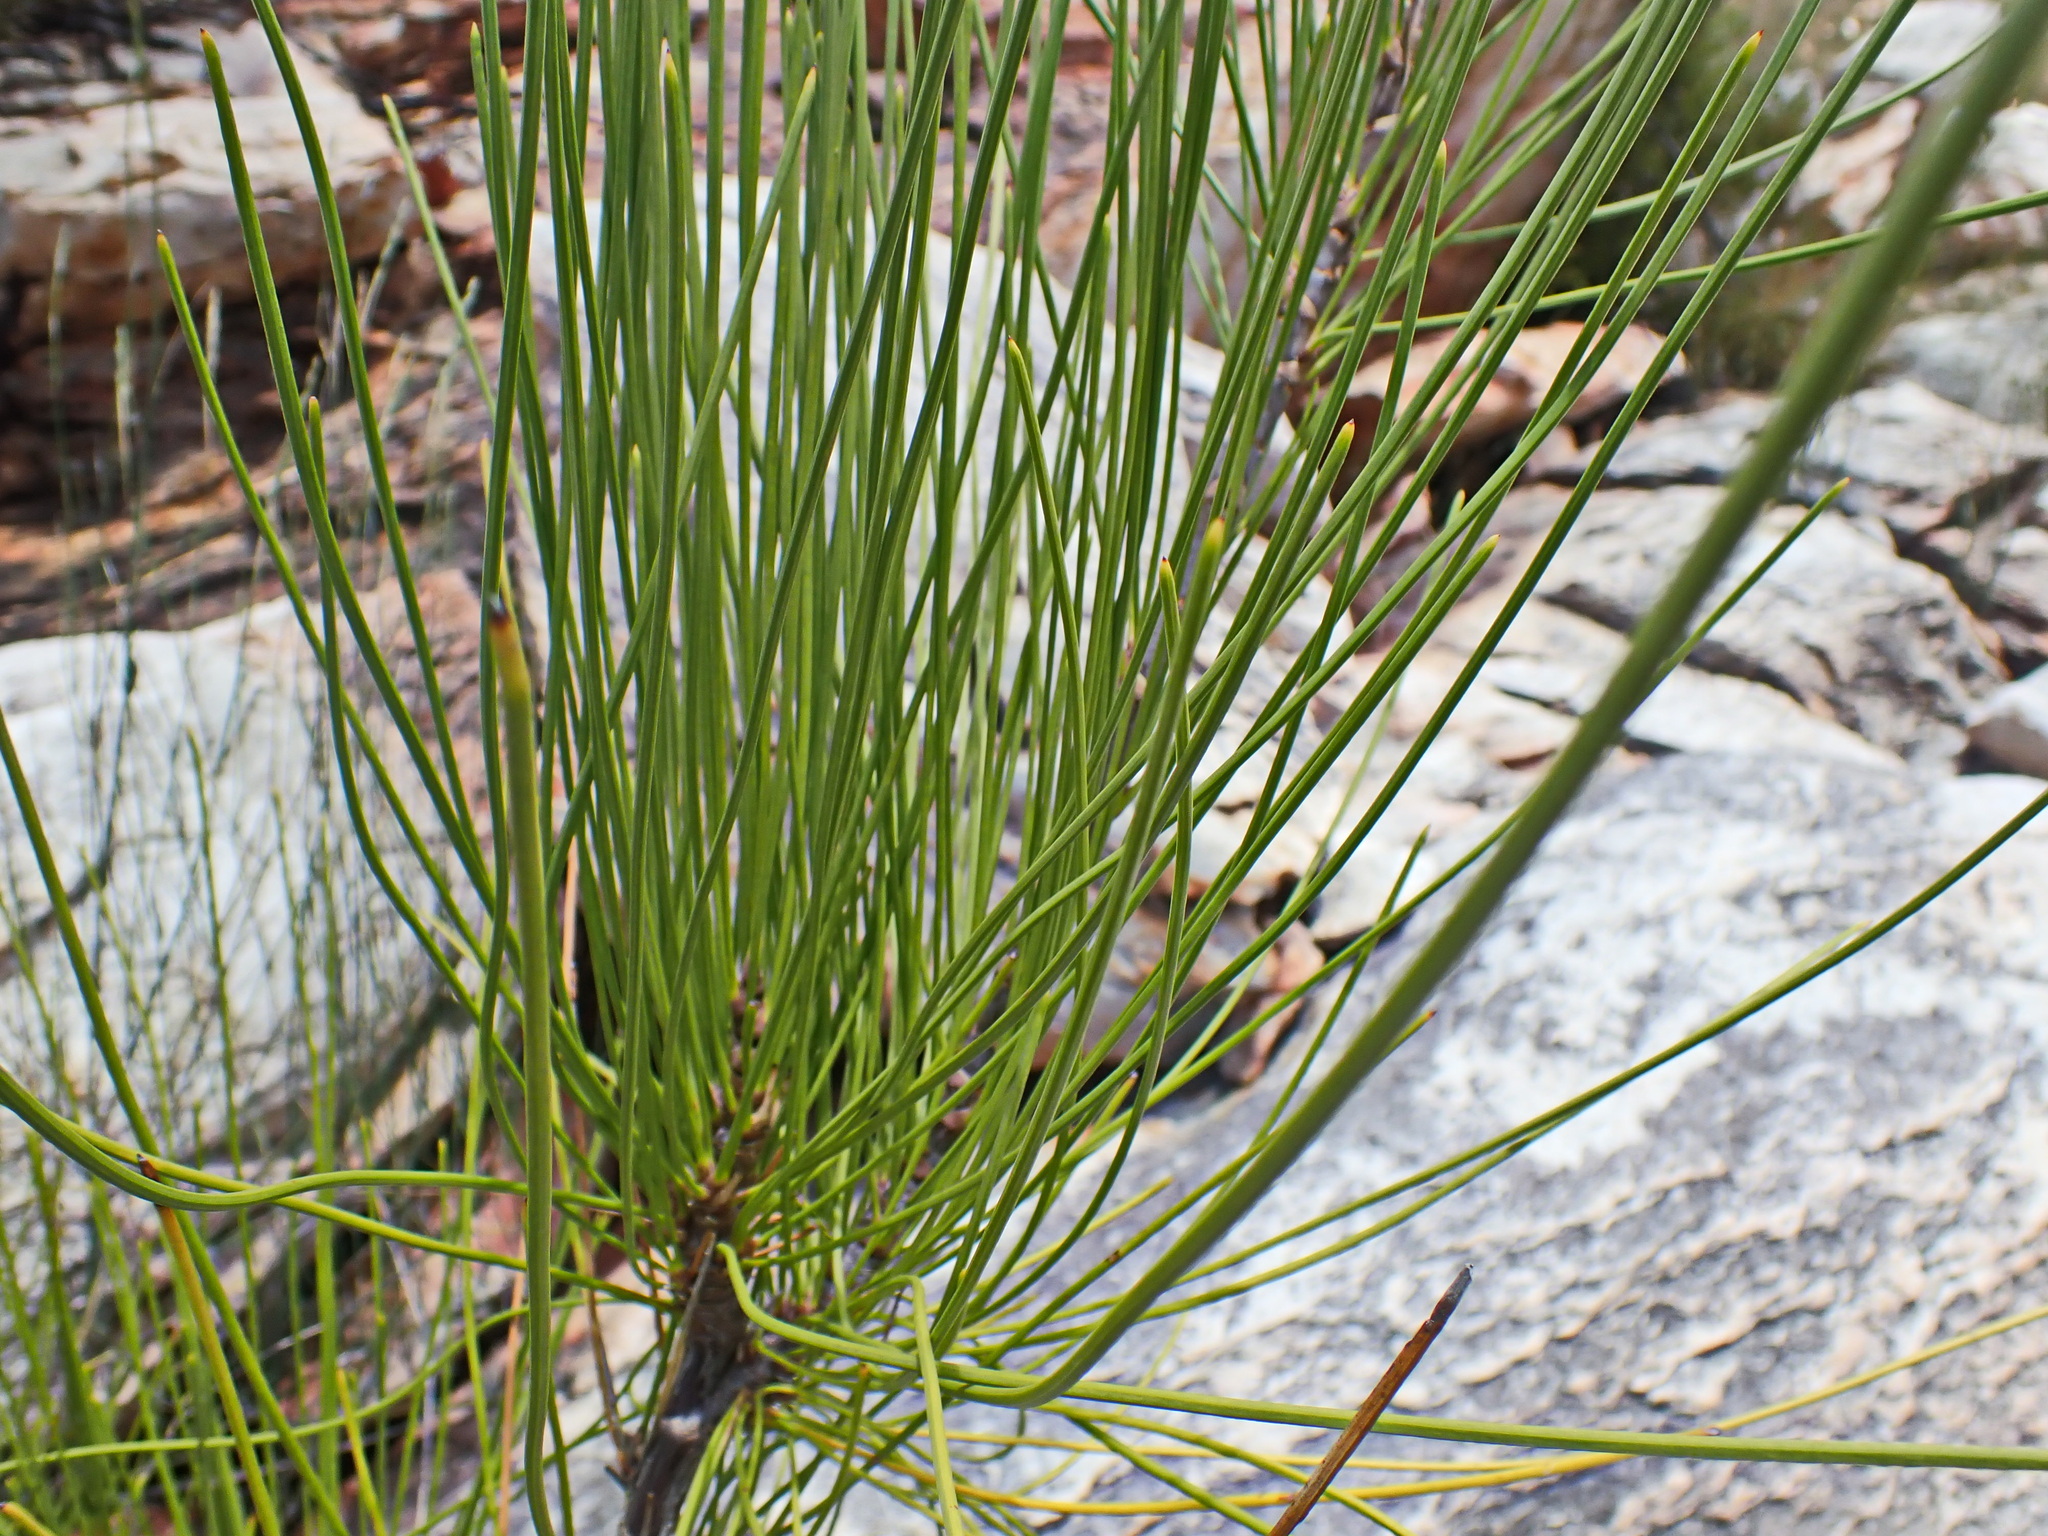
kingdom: Plantae
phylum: Tracheophyta
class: Magnoliopsida
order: Apiales
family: Apiaceae
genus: Anginon
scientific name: Anginon difforme
